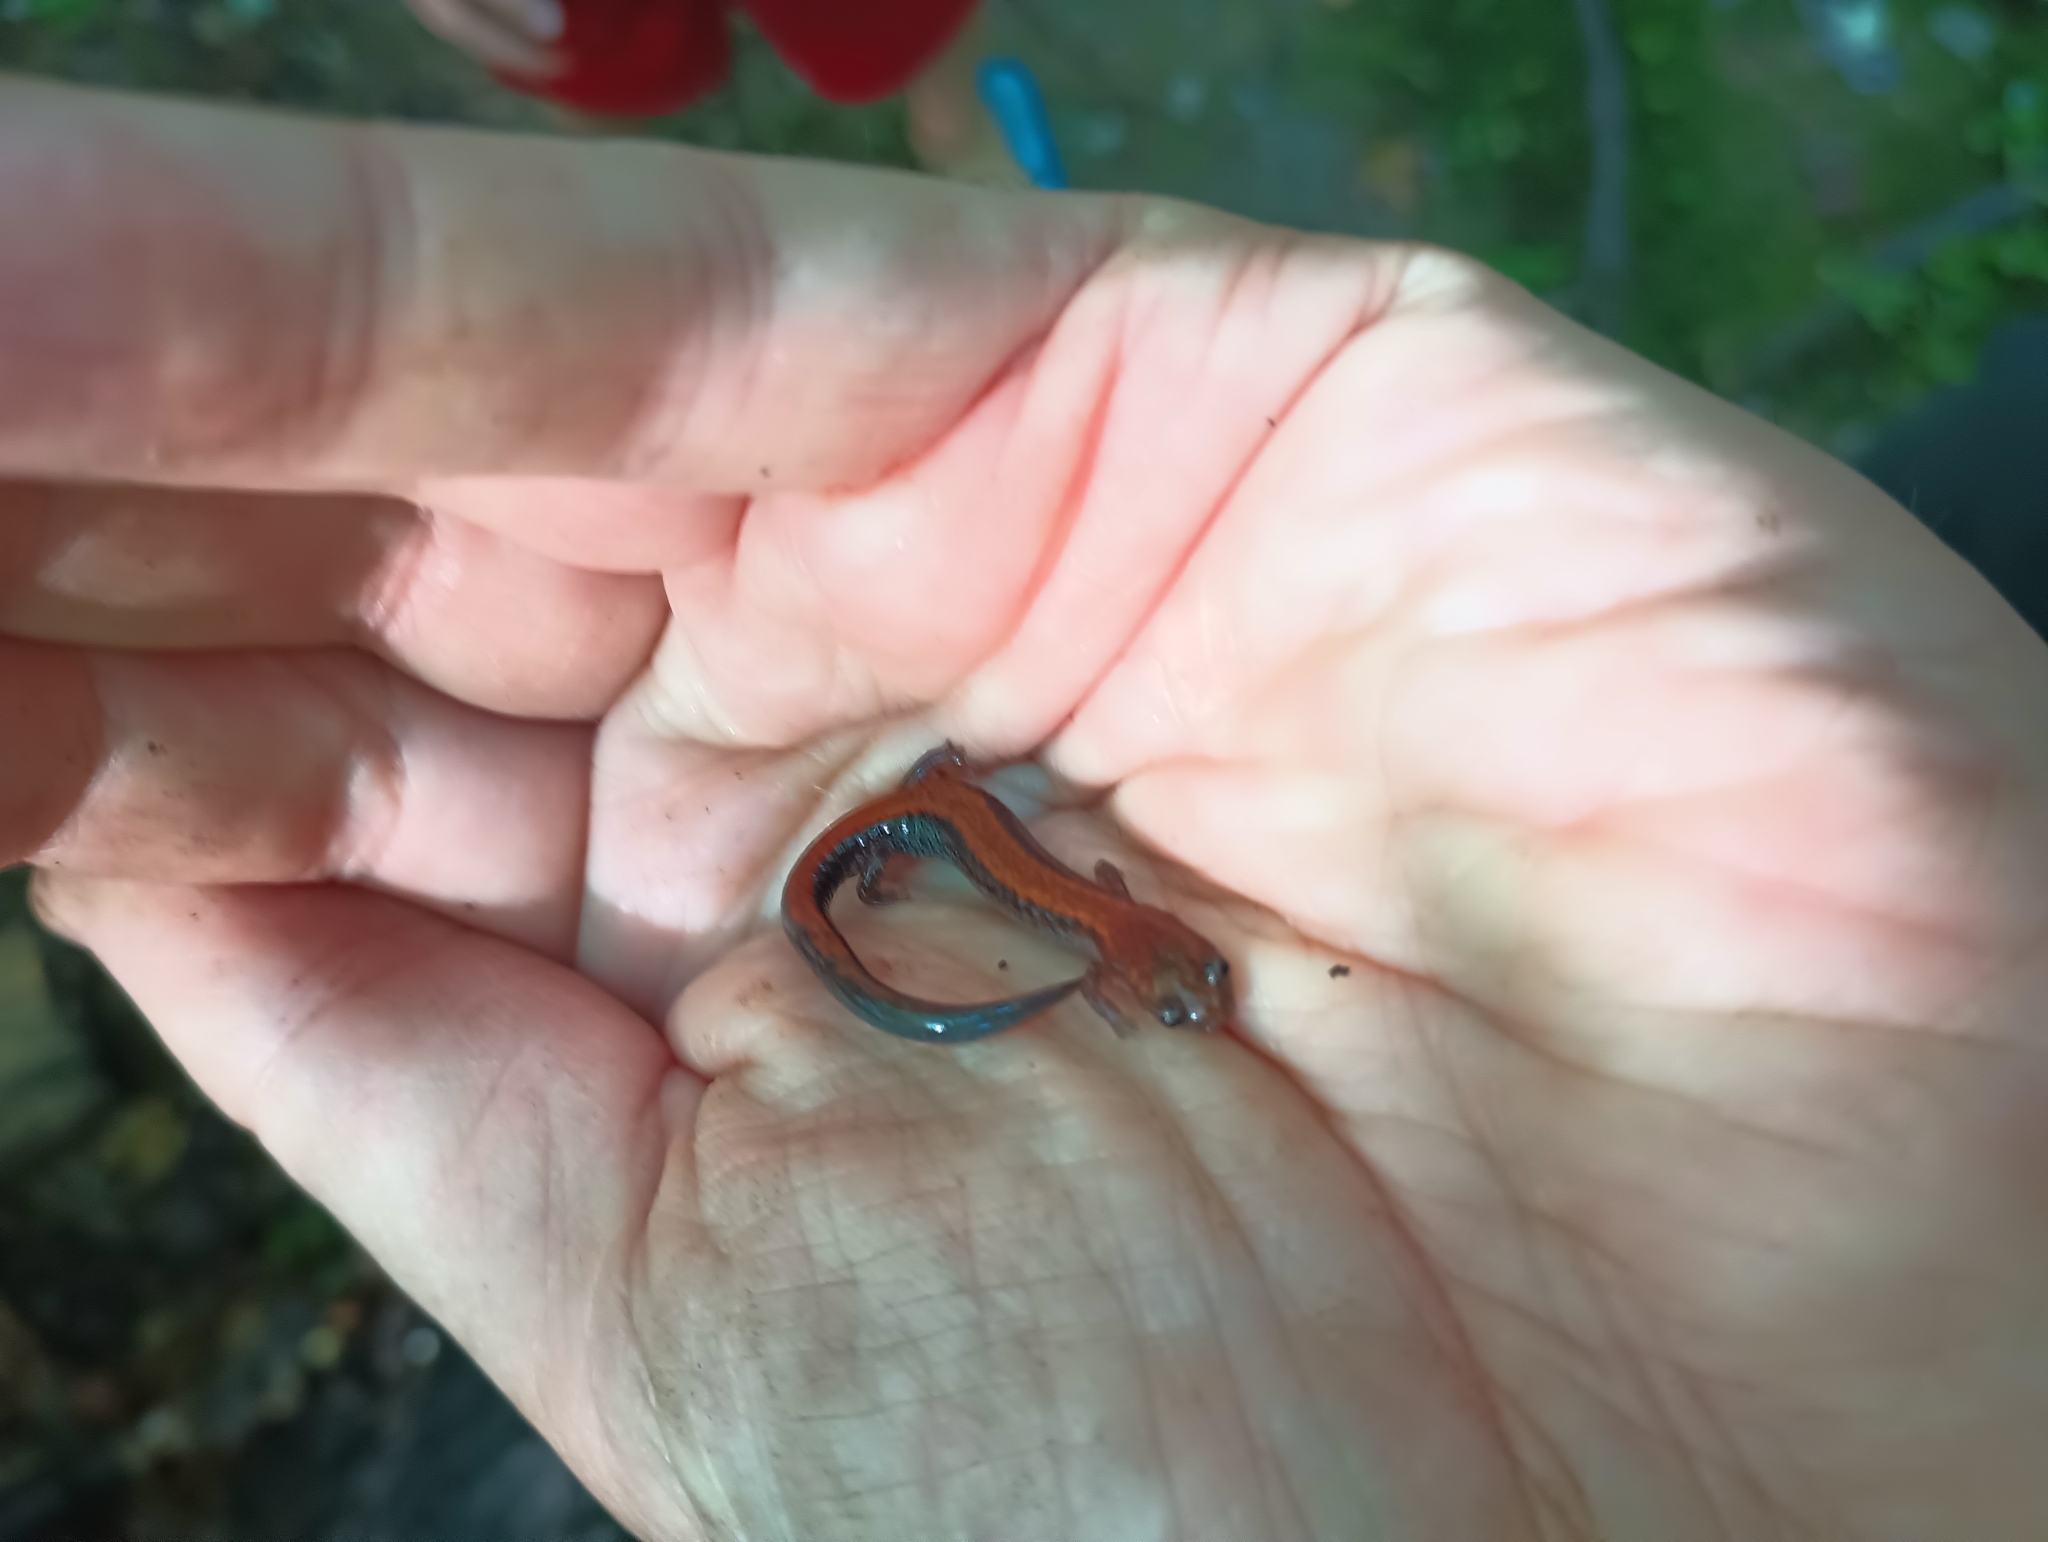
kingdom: Animalia
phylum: Chordata
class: Amphibia
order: Caudata
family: Plethodontidae
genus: Plethodon
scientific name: Plethodon cinereus
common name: Redback salamander
